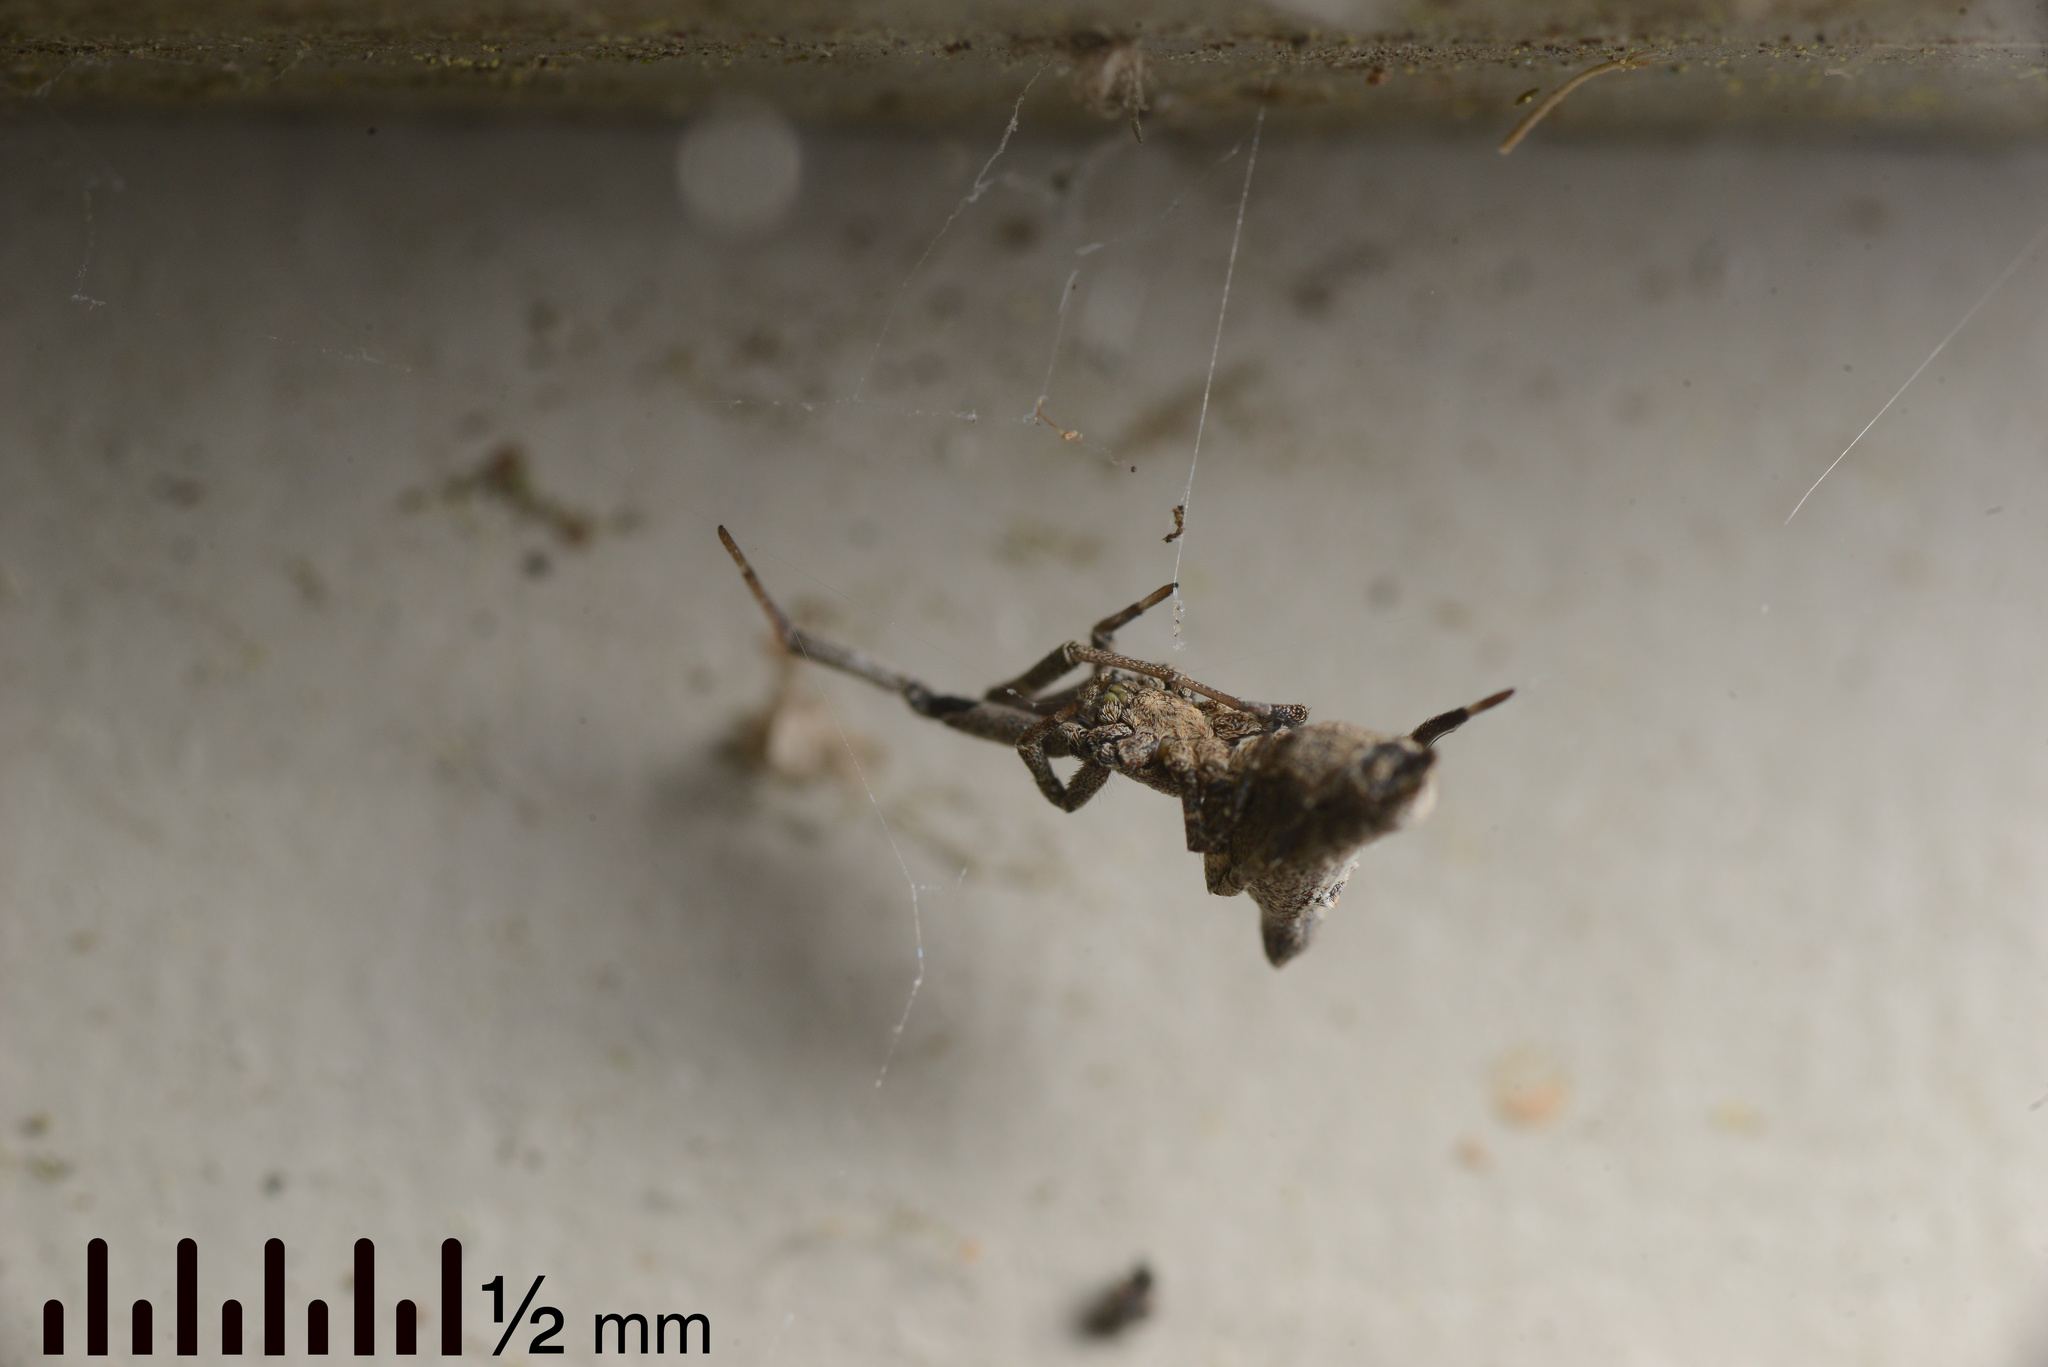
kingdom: Animalia
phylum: Arthropoda
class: Arachnida
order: Araneae
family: Uloboridae
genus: Philoponella
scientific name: Philoponella congregabilis
